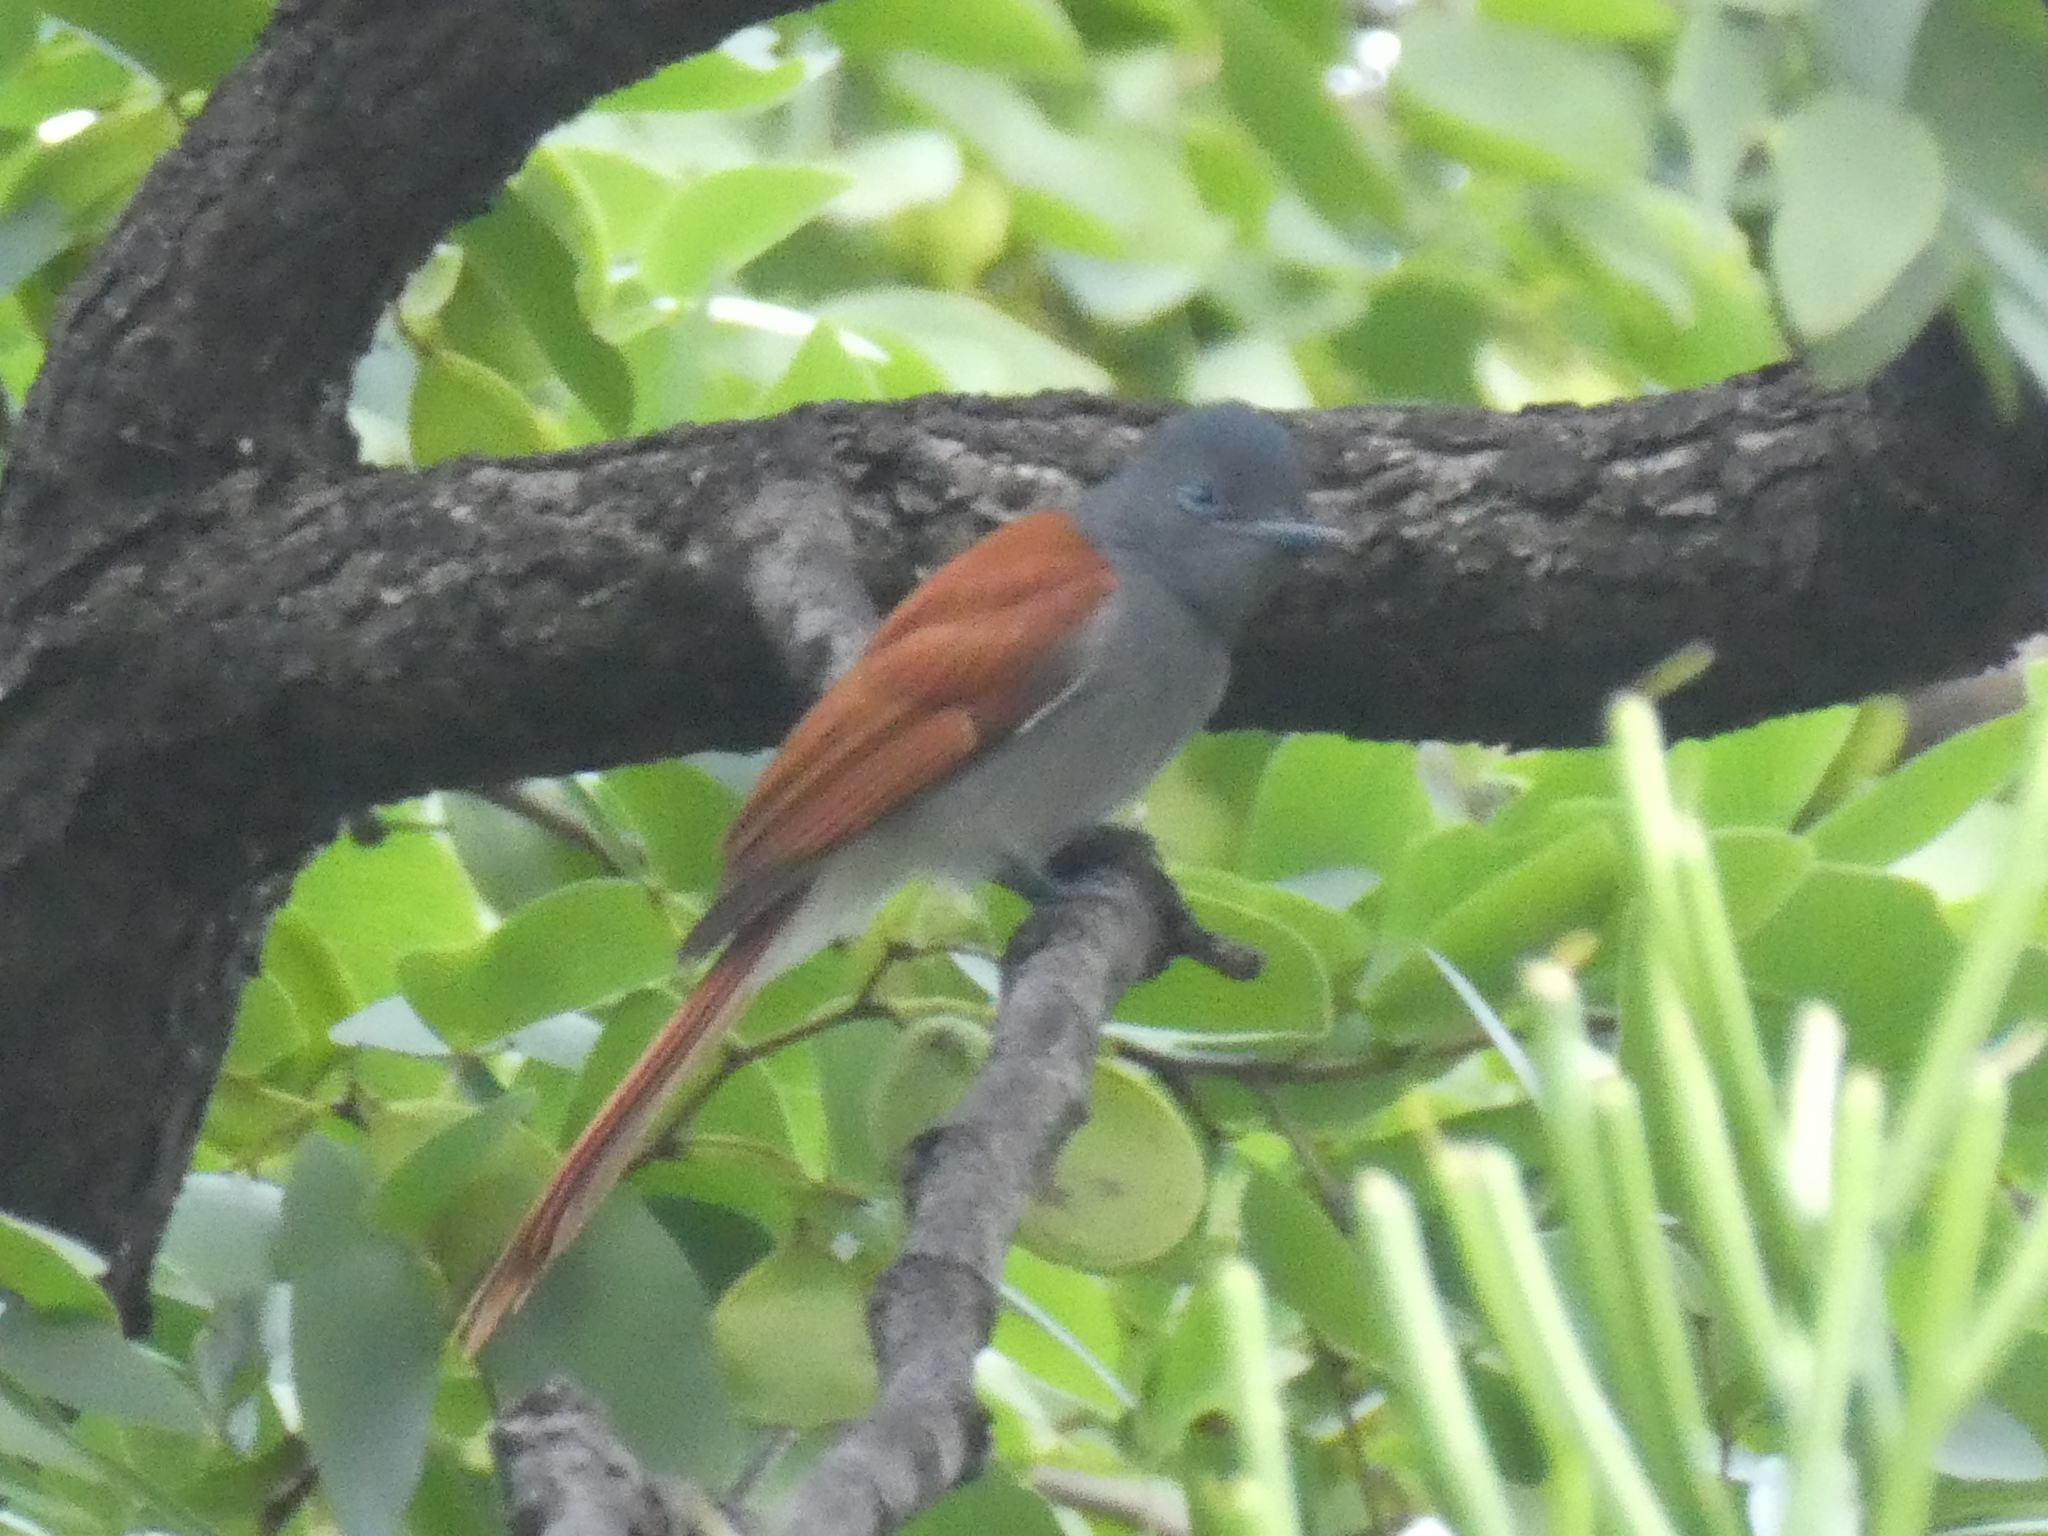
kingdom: Animalia
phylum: Chordata
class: Aves
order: Passeriformes
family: Monarchidae
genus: Terpsiphone
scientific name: Terpsiphone viridis
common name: African paradise flycatcher
